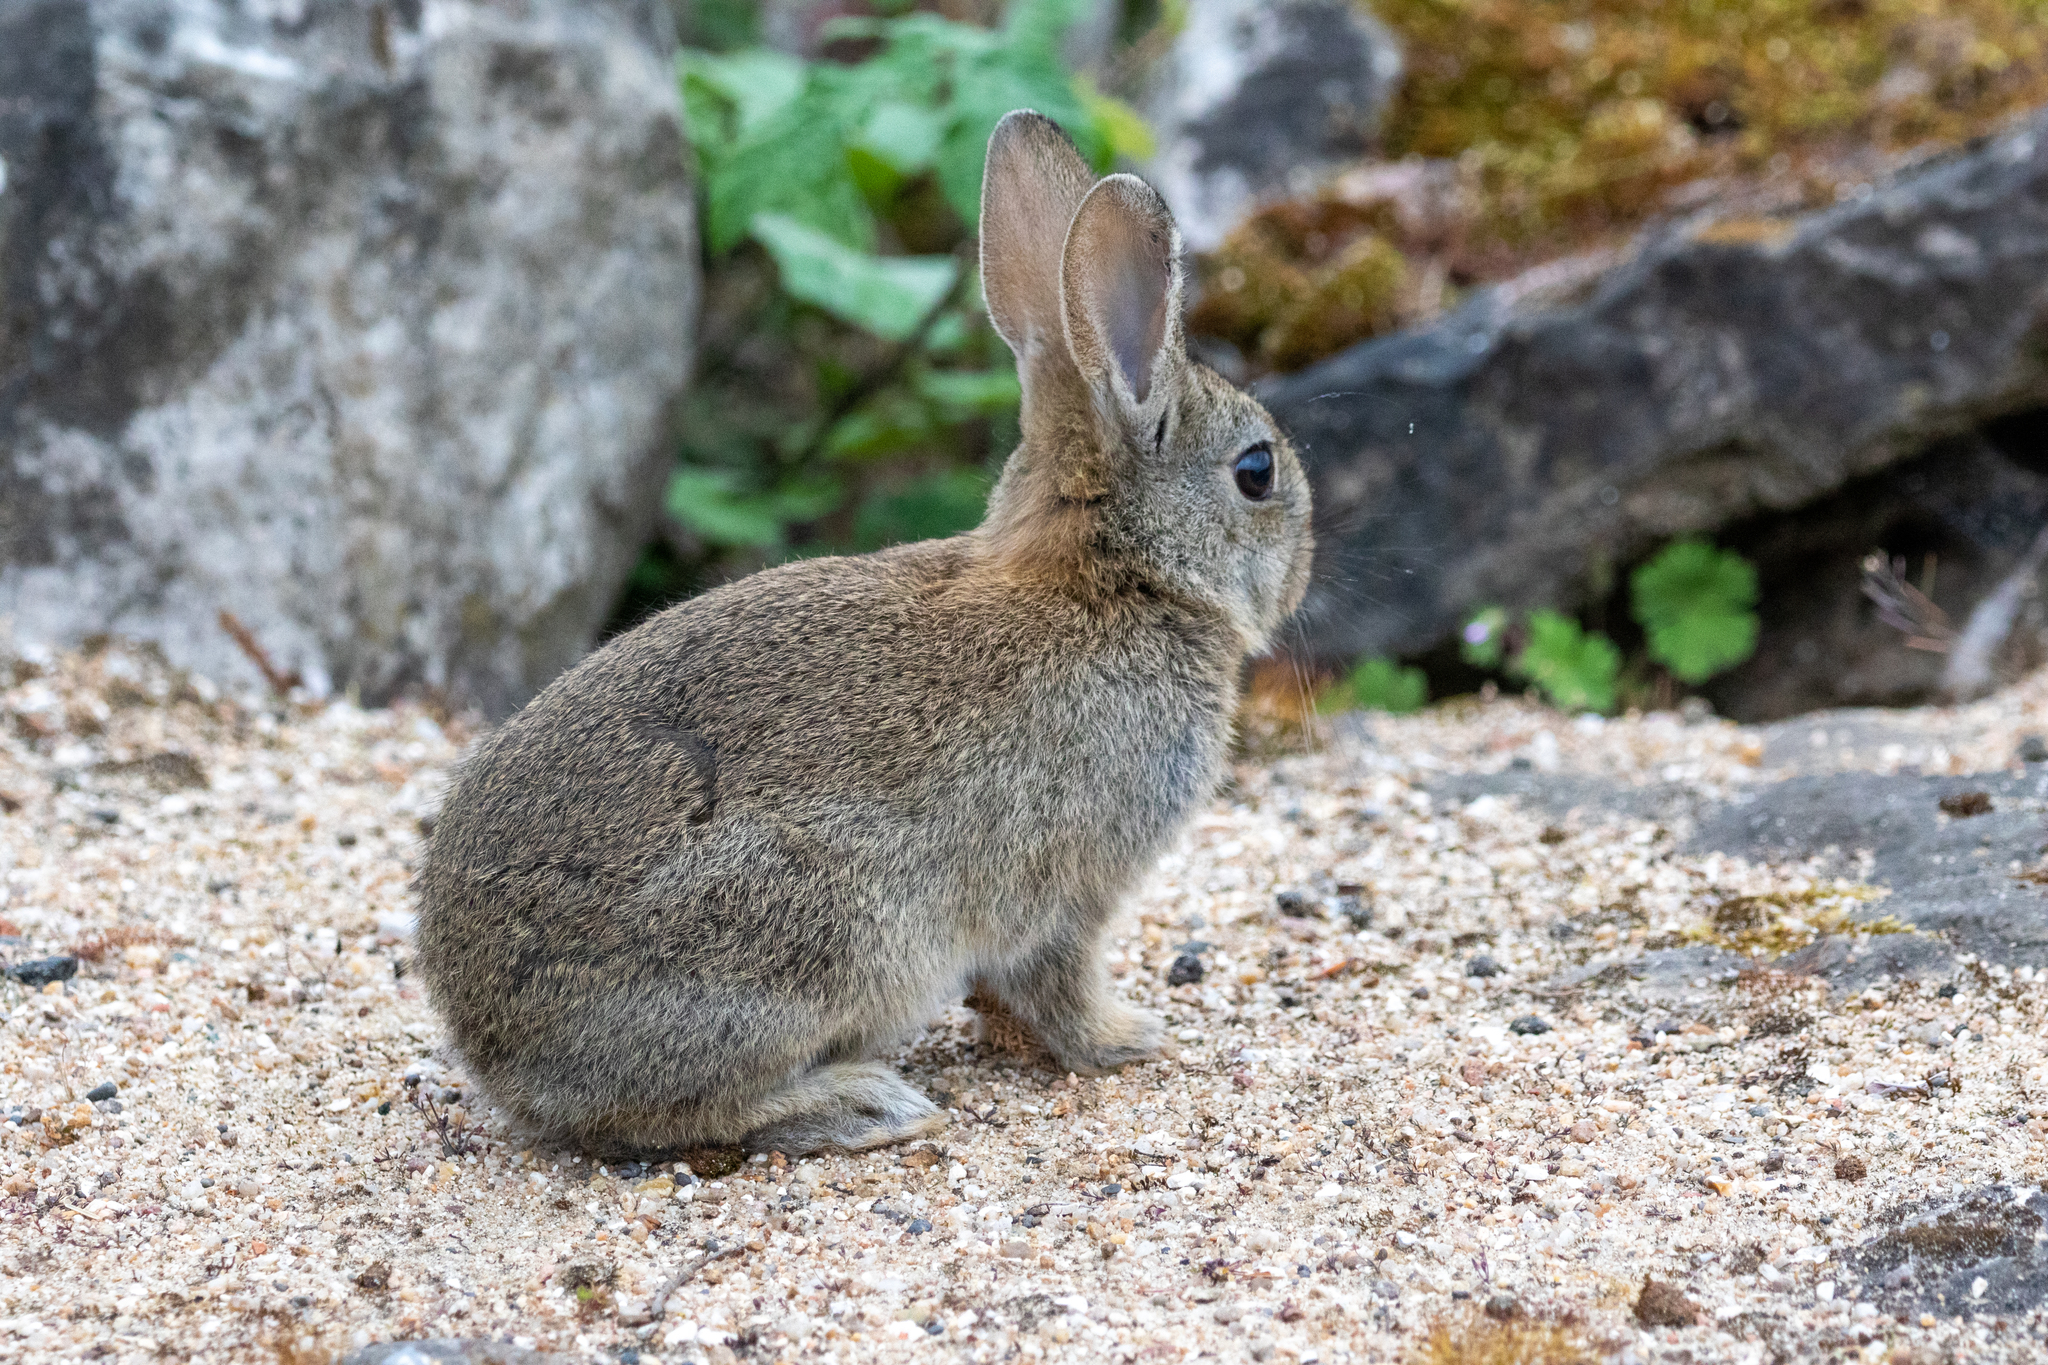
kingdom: Animalia
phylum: Chordata
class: Mammalia
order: Lagomorpha
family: Leporidae
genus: Oryctolagus
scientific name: Oryctolagus cuniculus
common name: European rabbit
